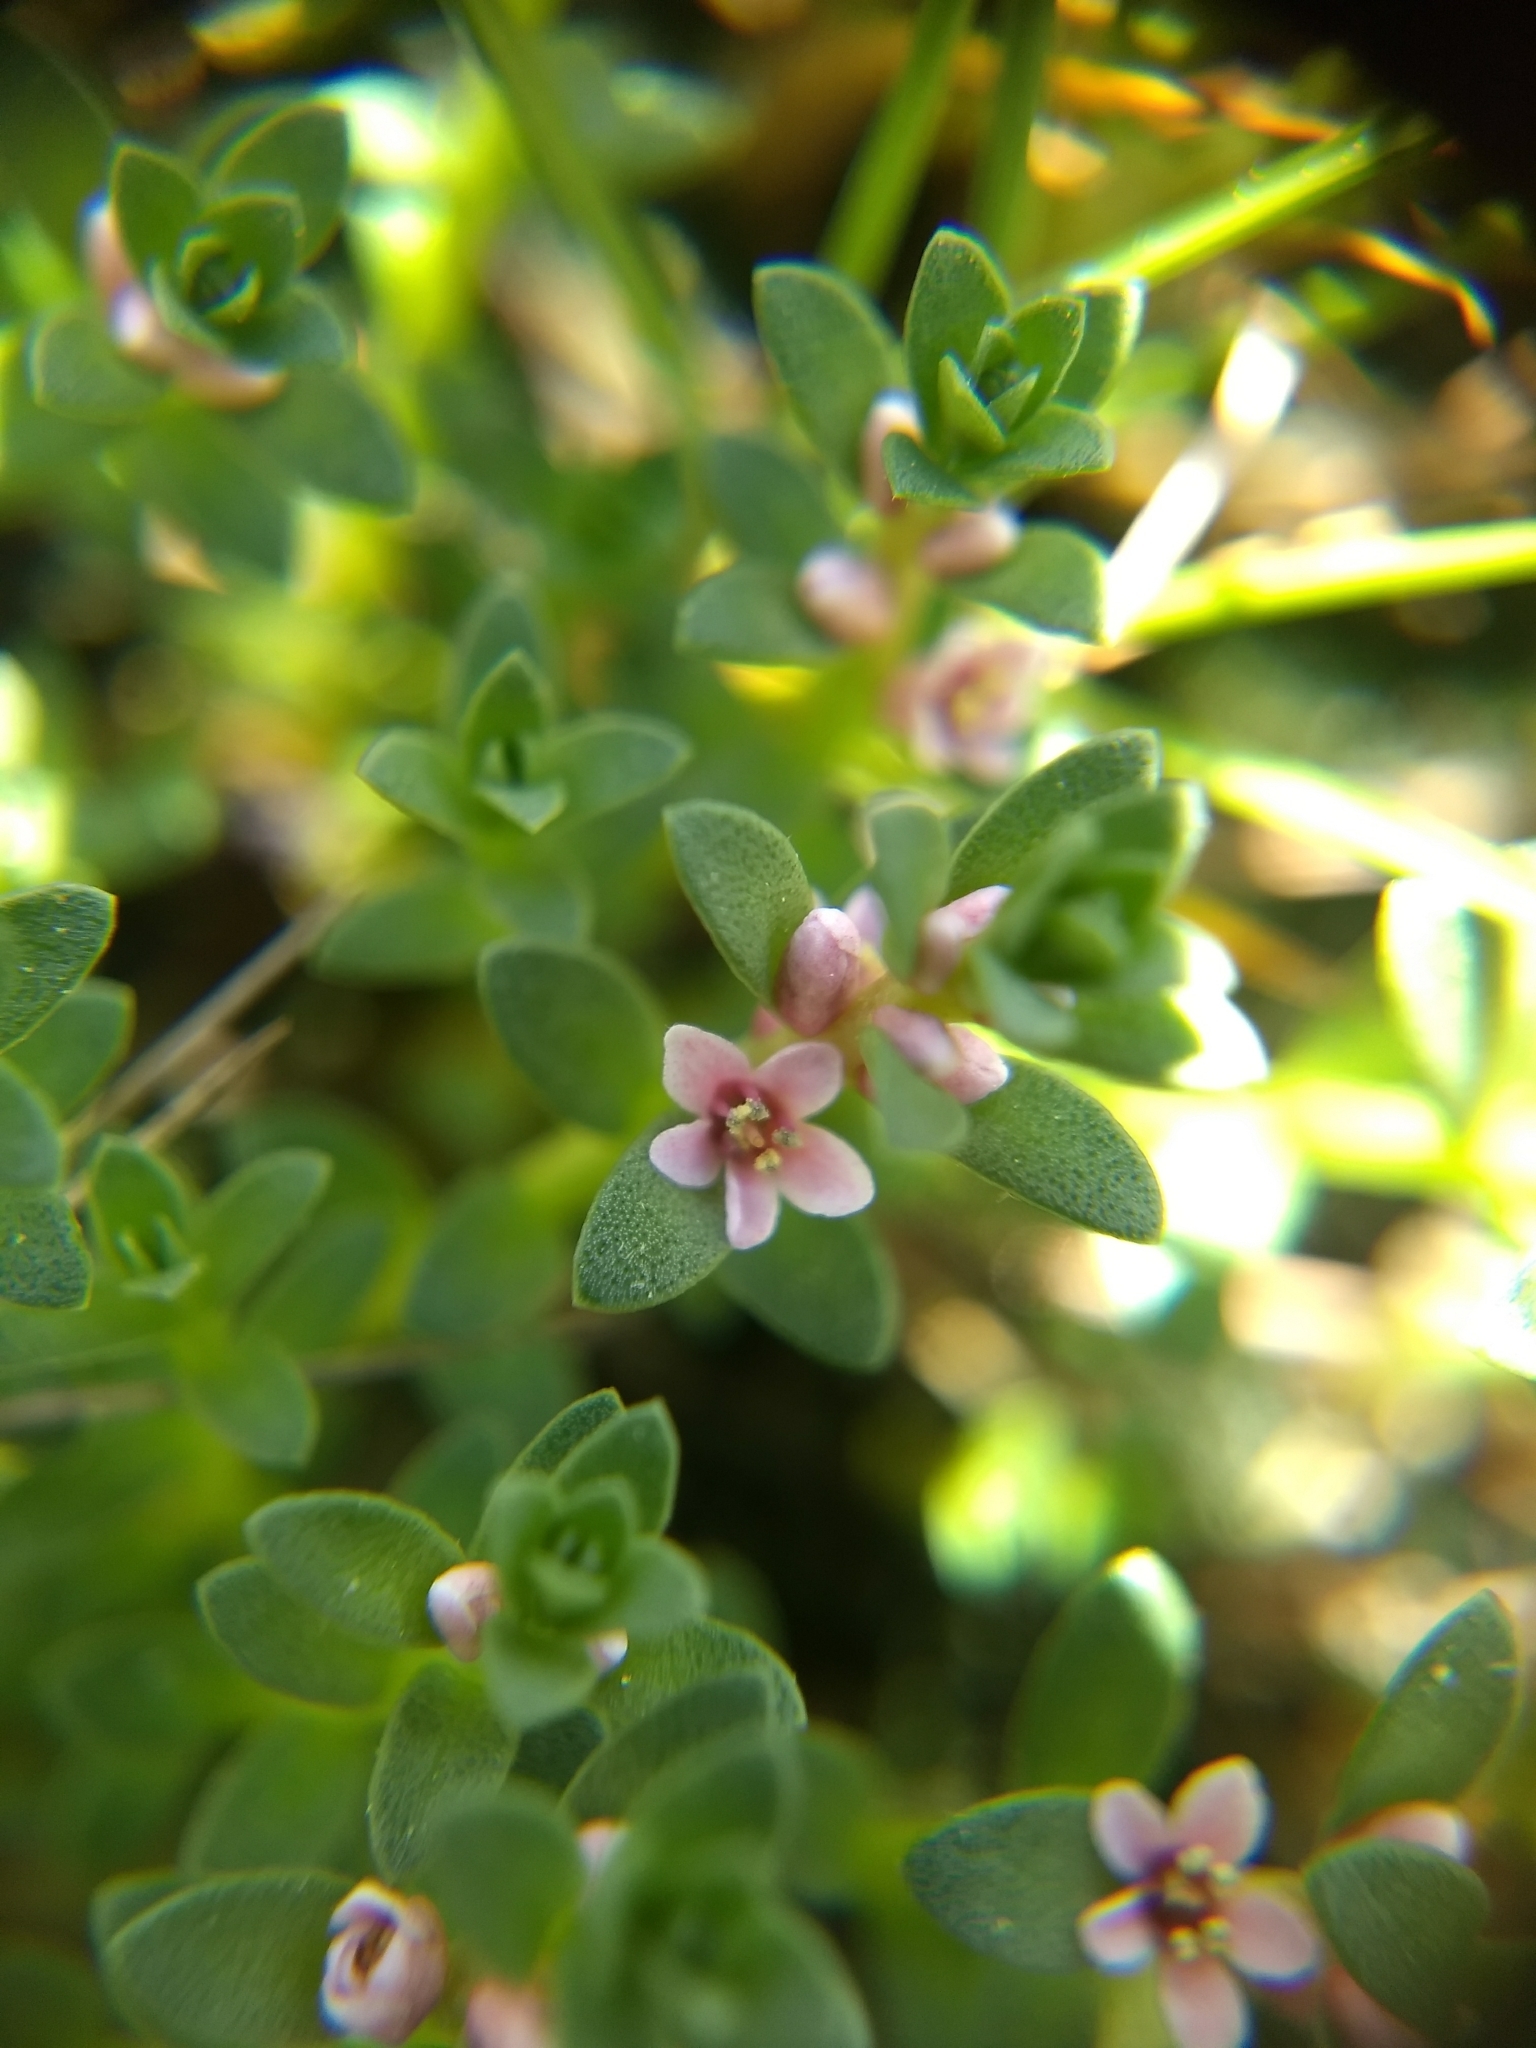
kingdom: Plantae
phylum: Tracheophyta
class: Magnoliopsida
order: Ericales
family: Primulaceae
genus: Lysimachia
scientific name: Lysimachia maritima
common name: Sea milkwort
